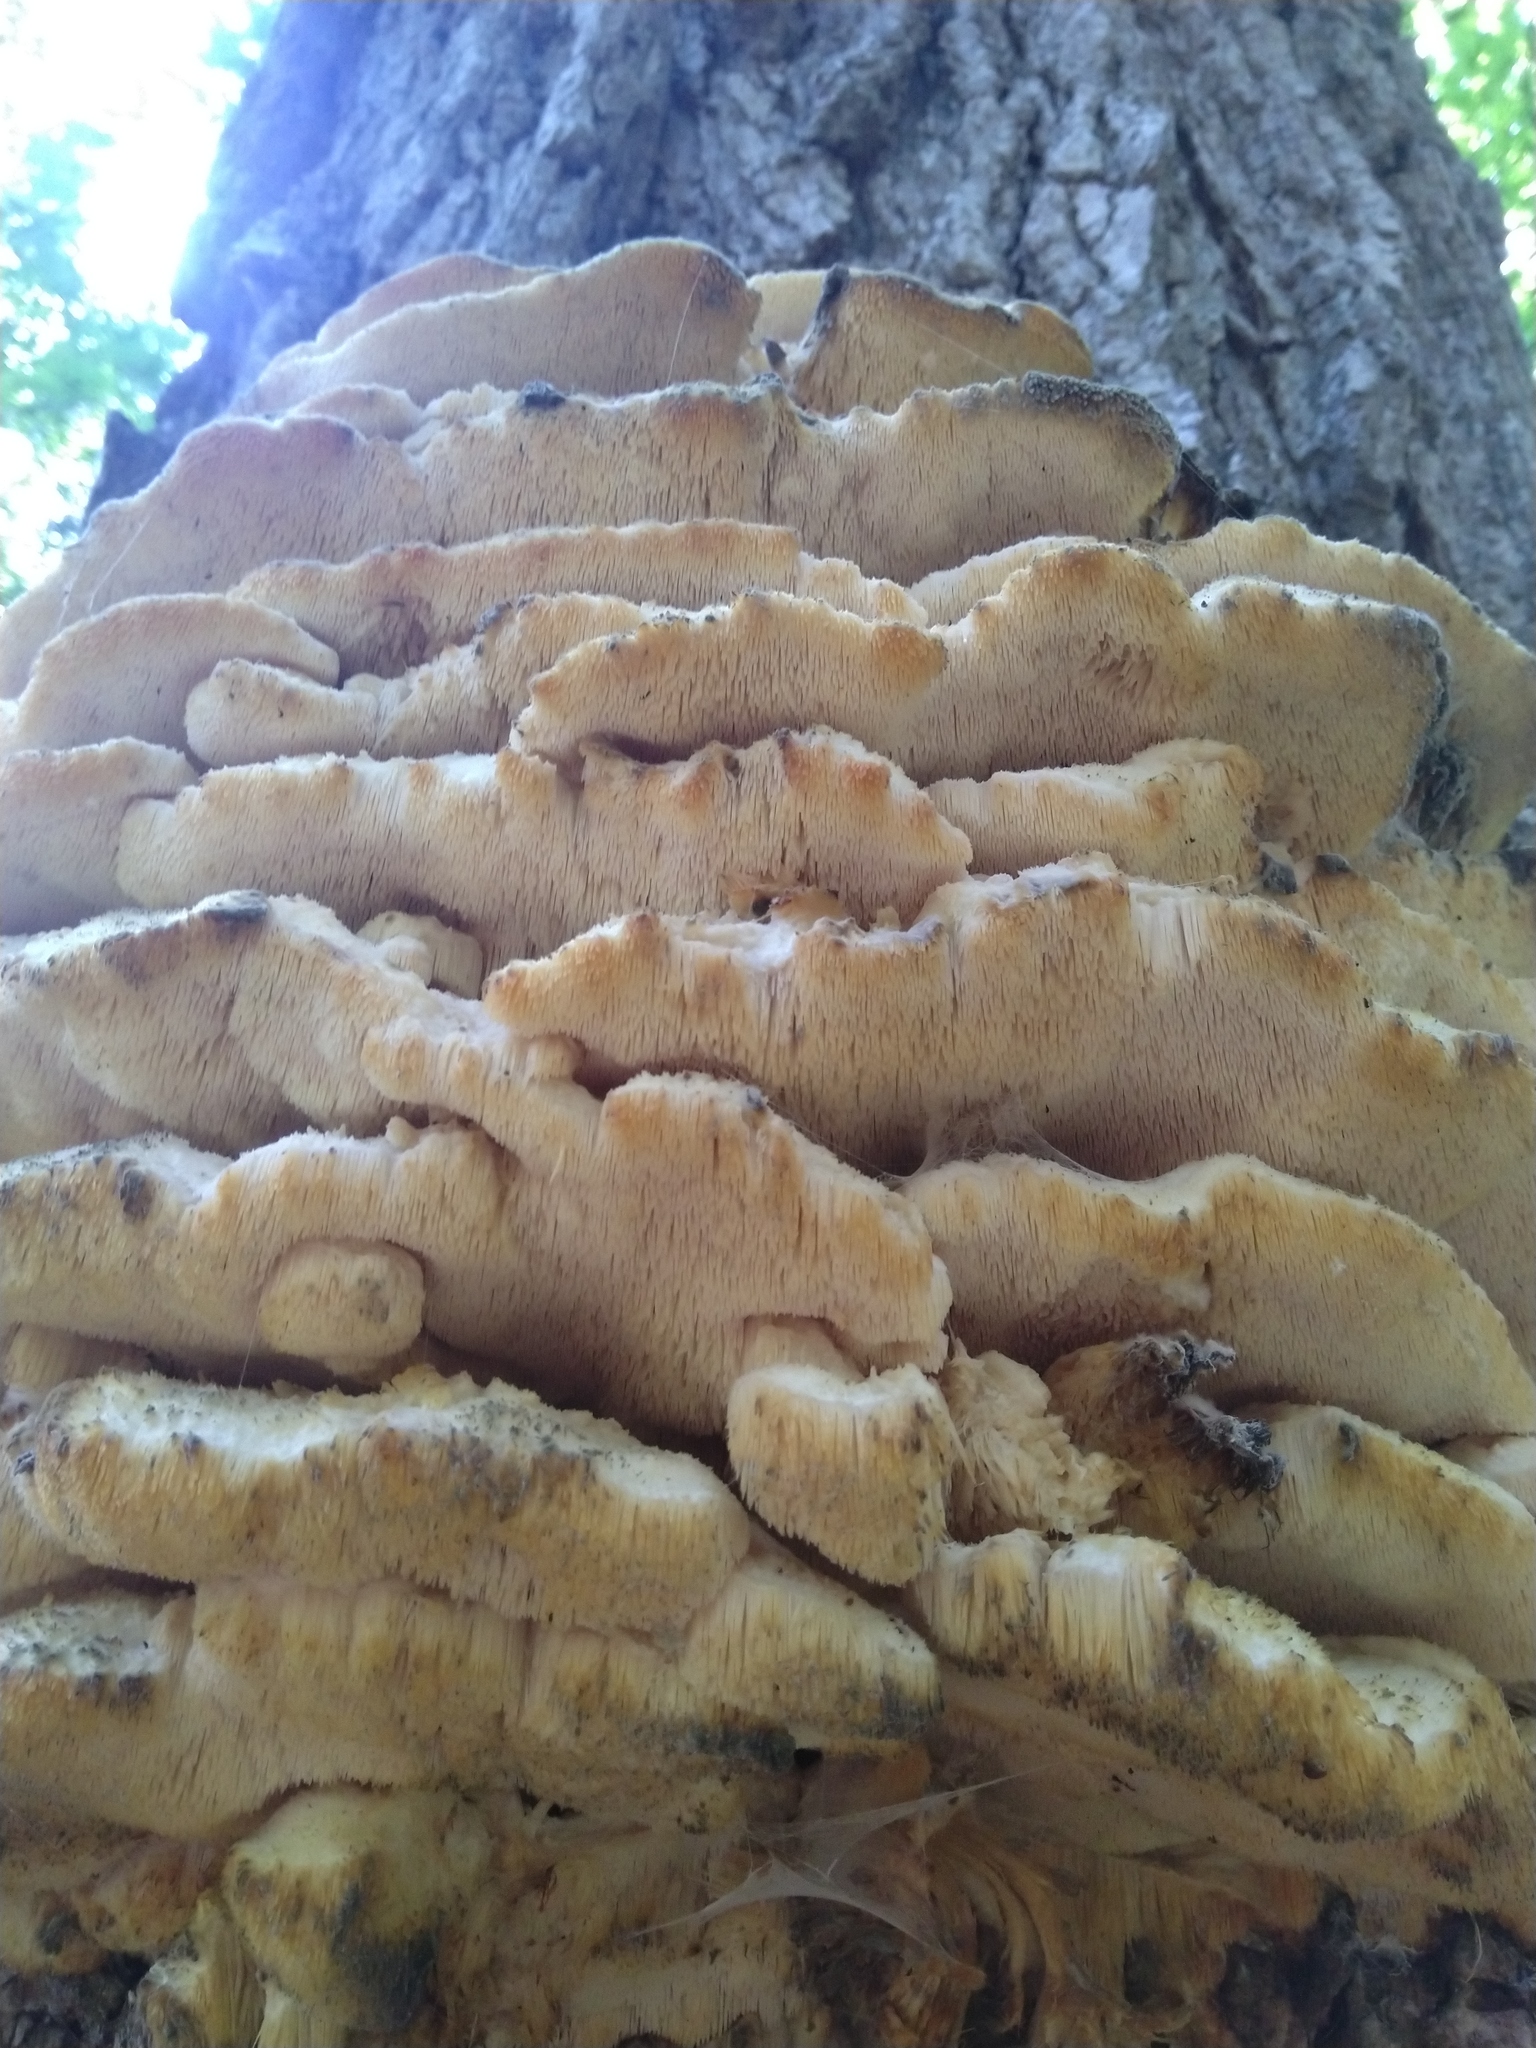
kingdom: Fungi
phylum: Basidiomycota
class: Agaricomycetes
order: Polyporales
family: Meruliaceae
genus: Climacodon
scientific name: Climacodon septentrionalis
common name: Northern tooth
